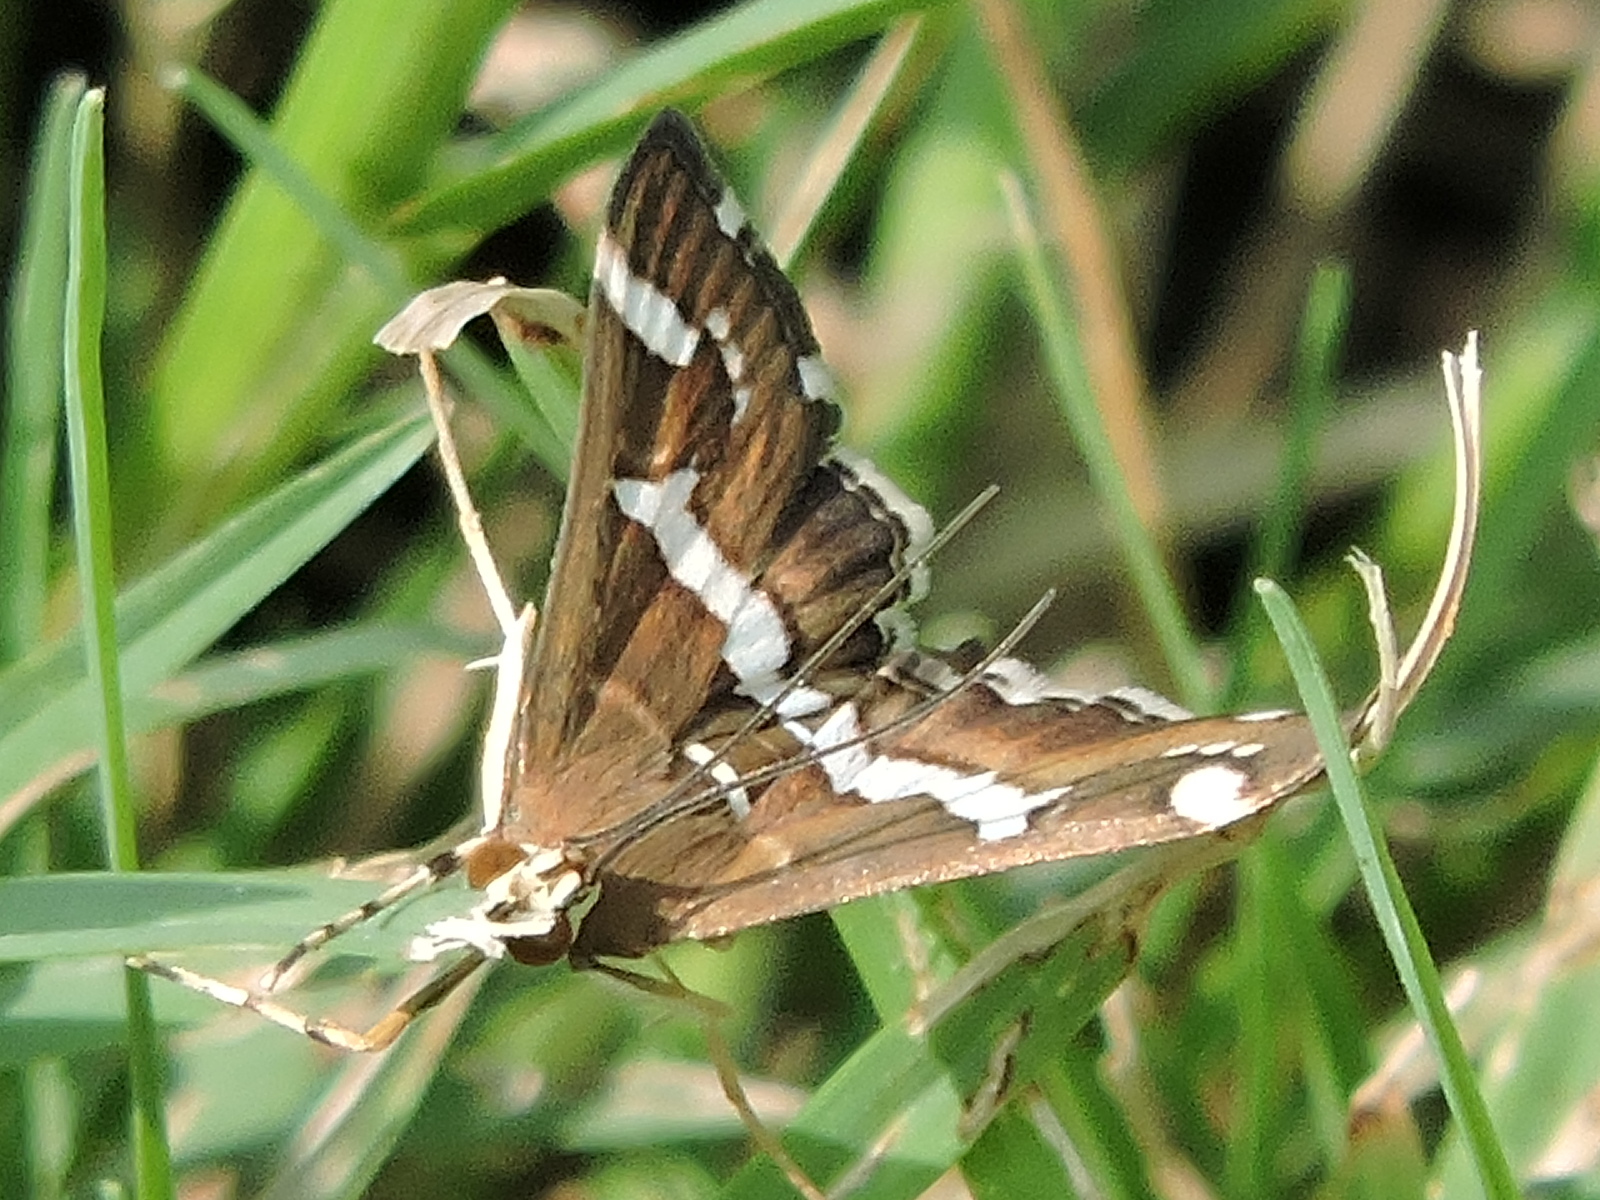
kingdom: Animalia
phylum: Arthropoda
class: Insecta
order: Lepidoptera
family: Crambidae
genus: Spoladea
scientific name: Spoladea recurvalis
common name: Beet webworm moth
